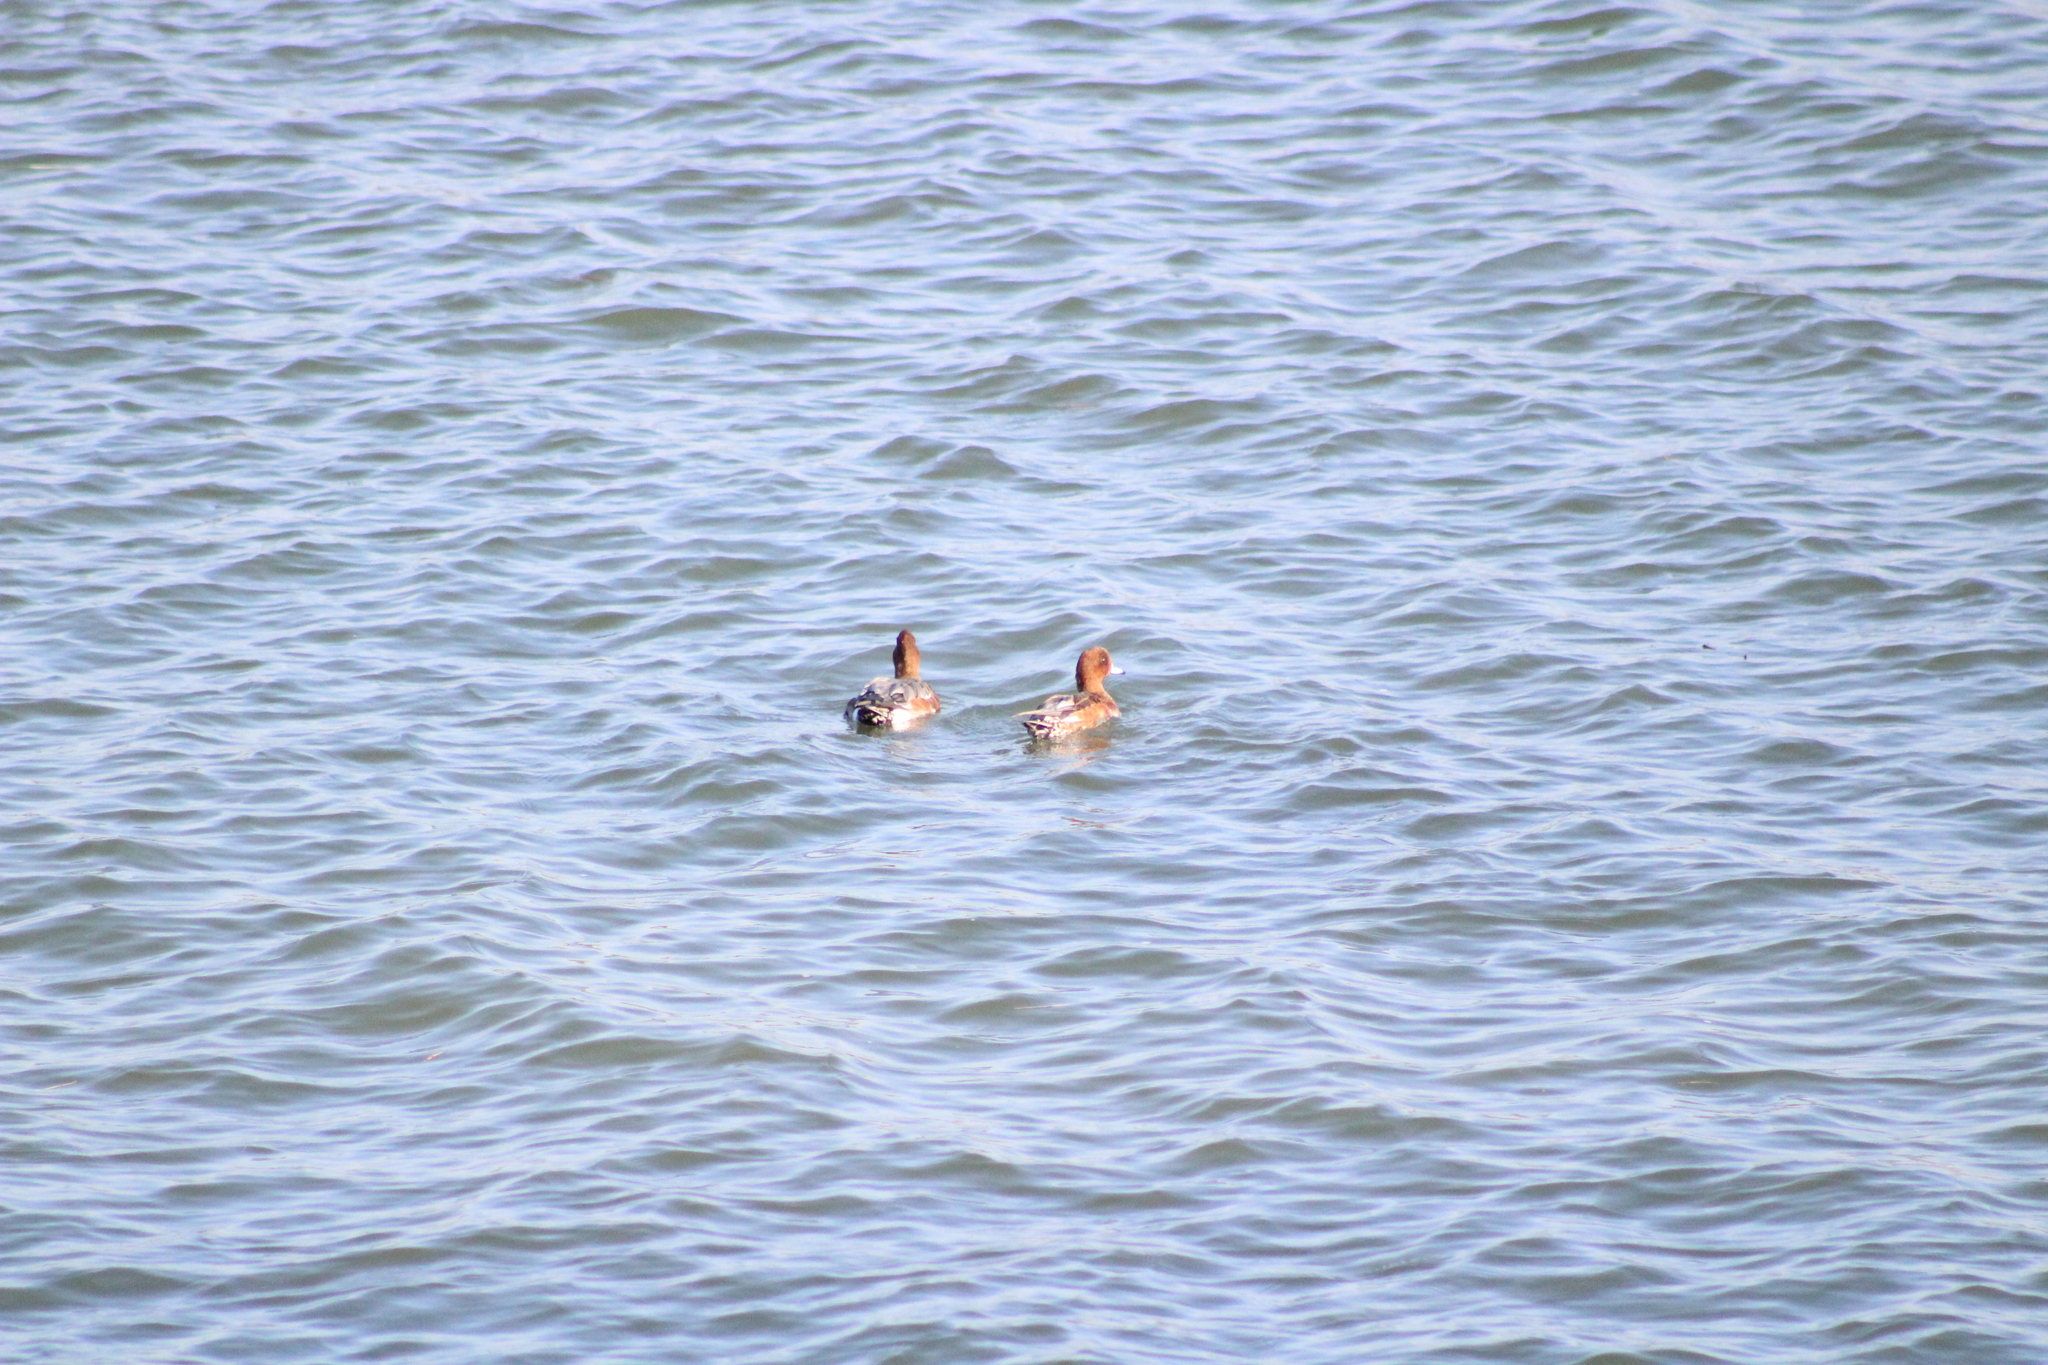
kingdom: Animalia
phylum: Chordata
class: Aves
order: Anseriformes
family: Anatidae
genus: Mareca
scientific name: Mareca penelope
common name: Eurasian wigeon
